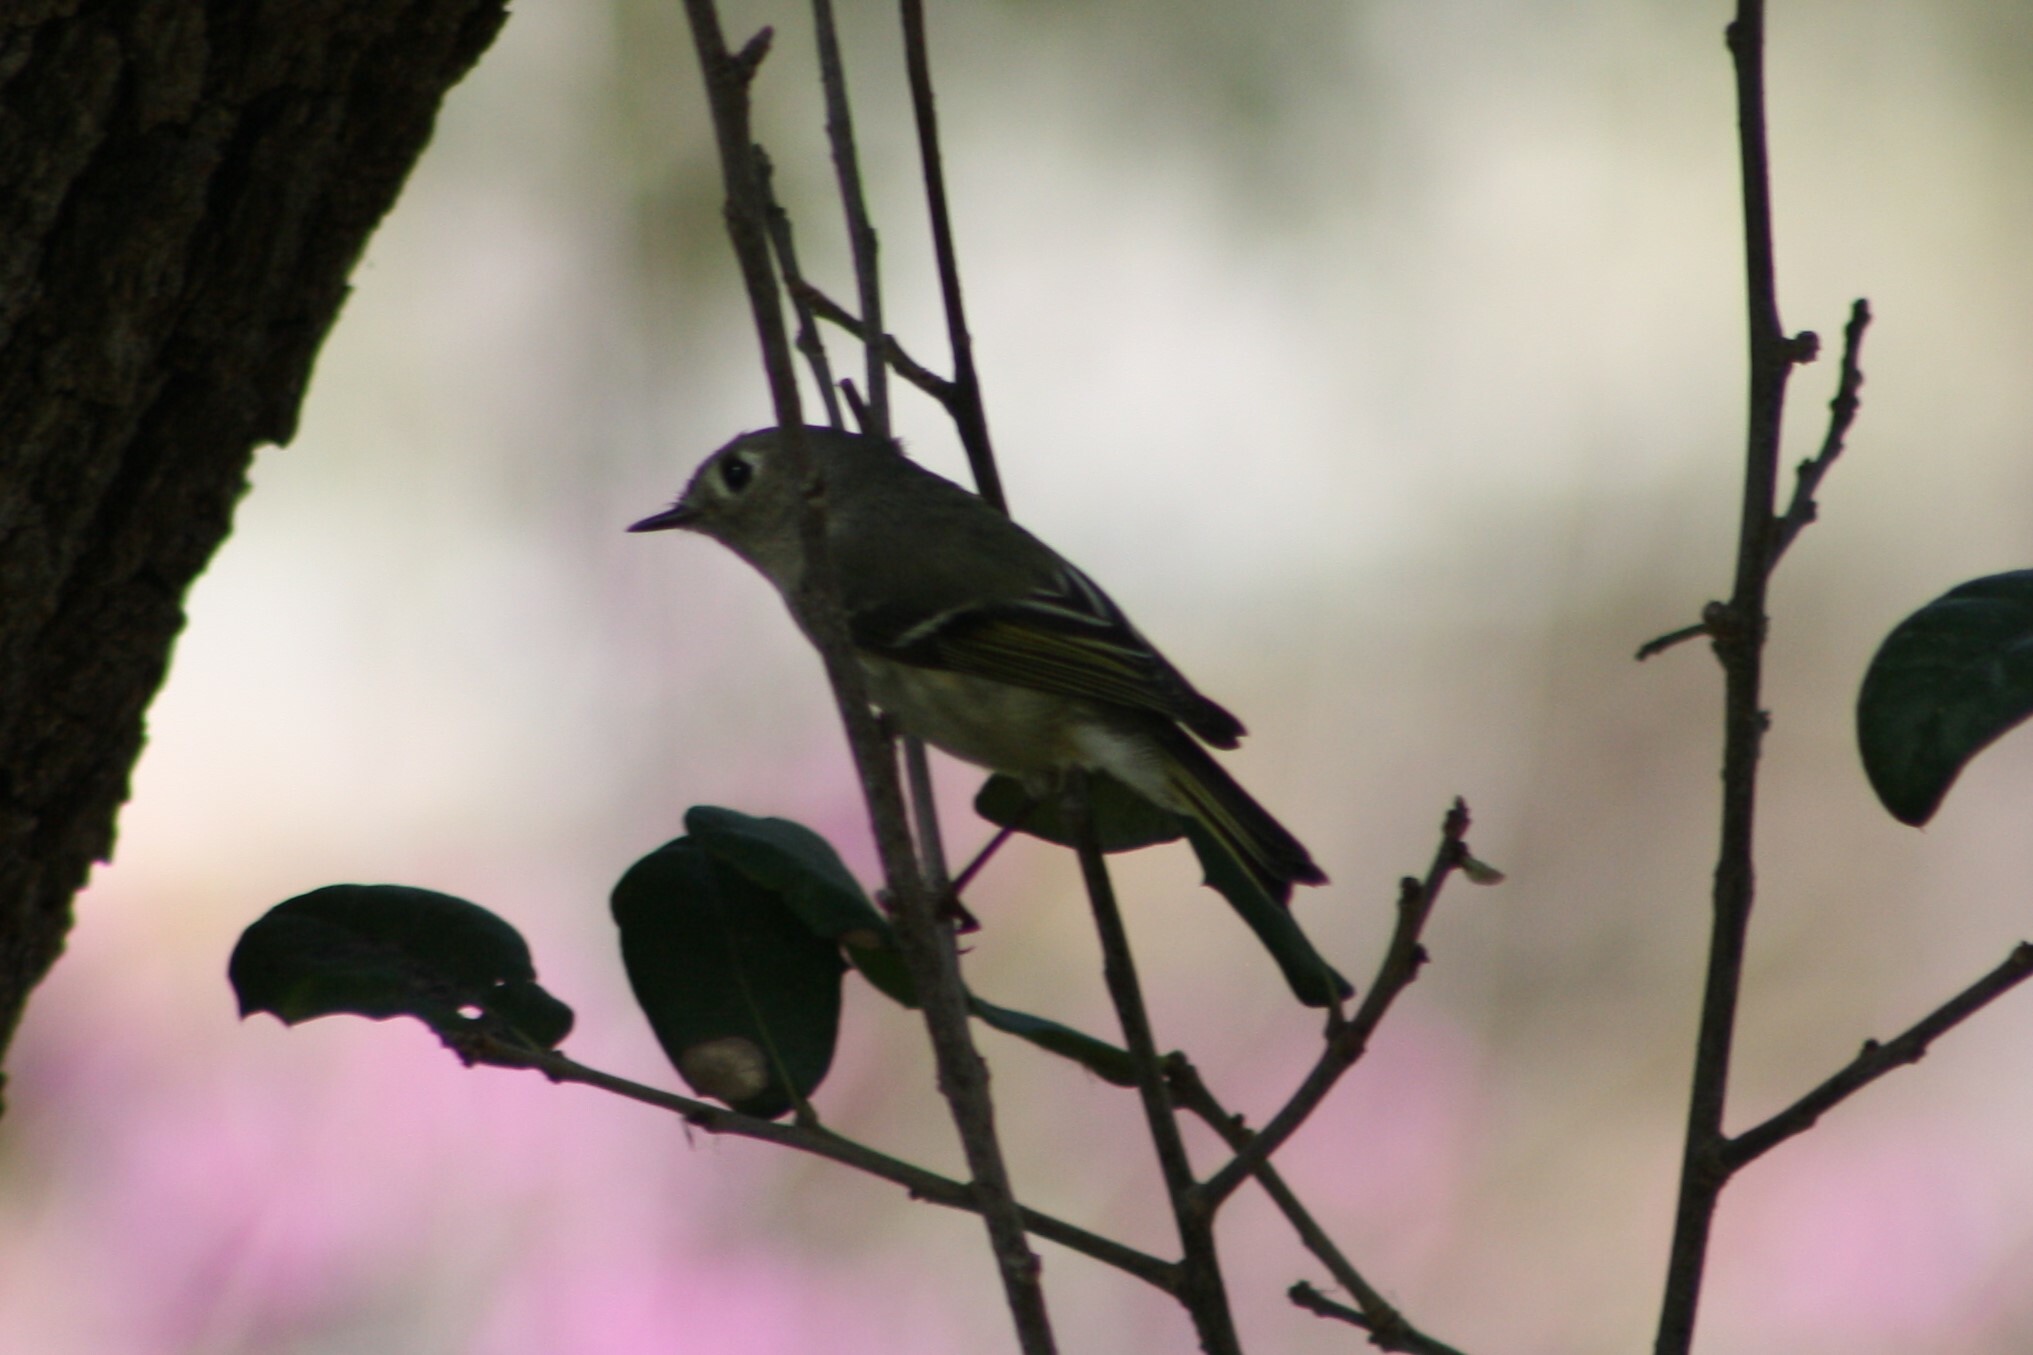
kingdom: Animalia
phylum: Chordata
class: Aves
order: Passeriformes
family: Regulidae
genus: Regulus
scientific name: Regulus calendula
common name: Ruby-crowned kinglet
